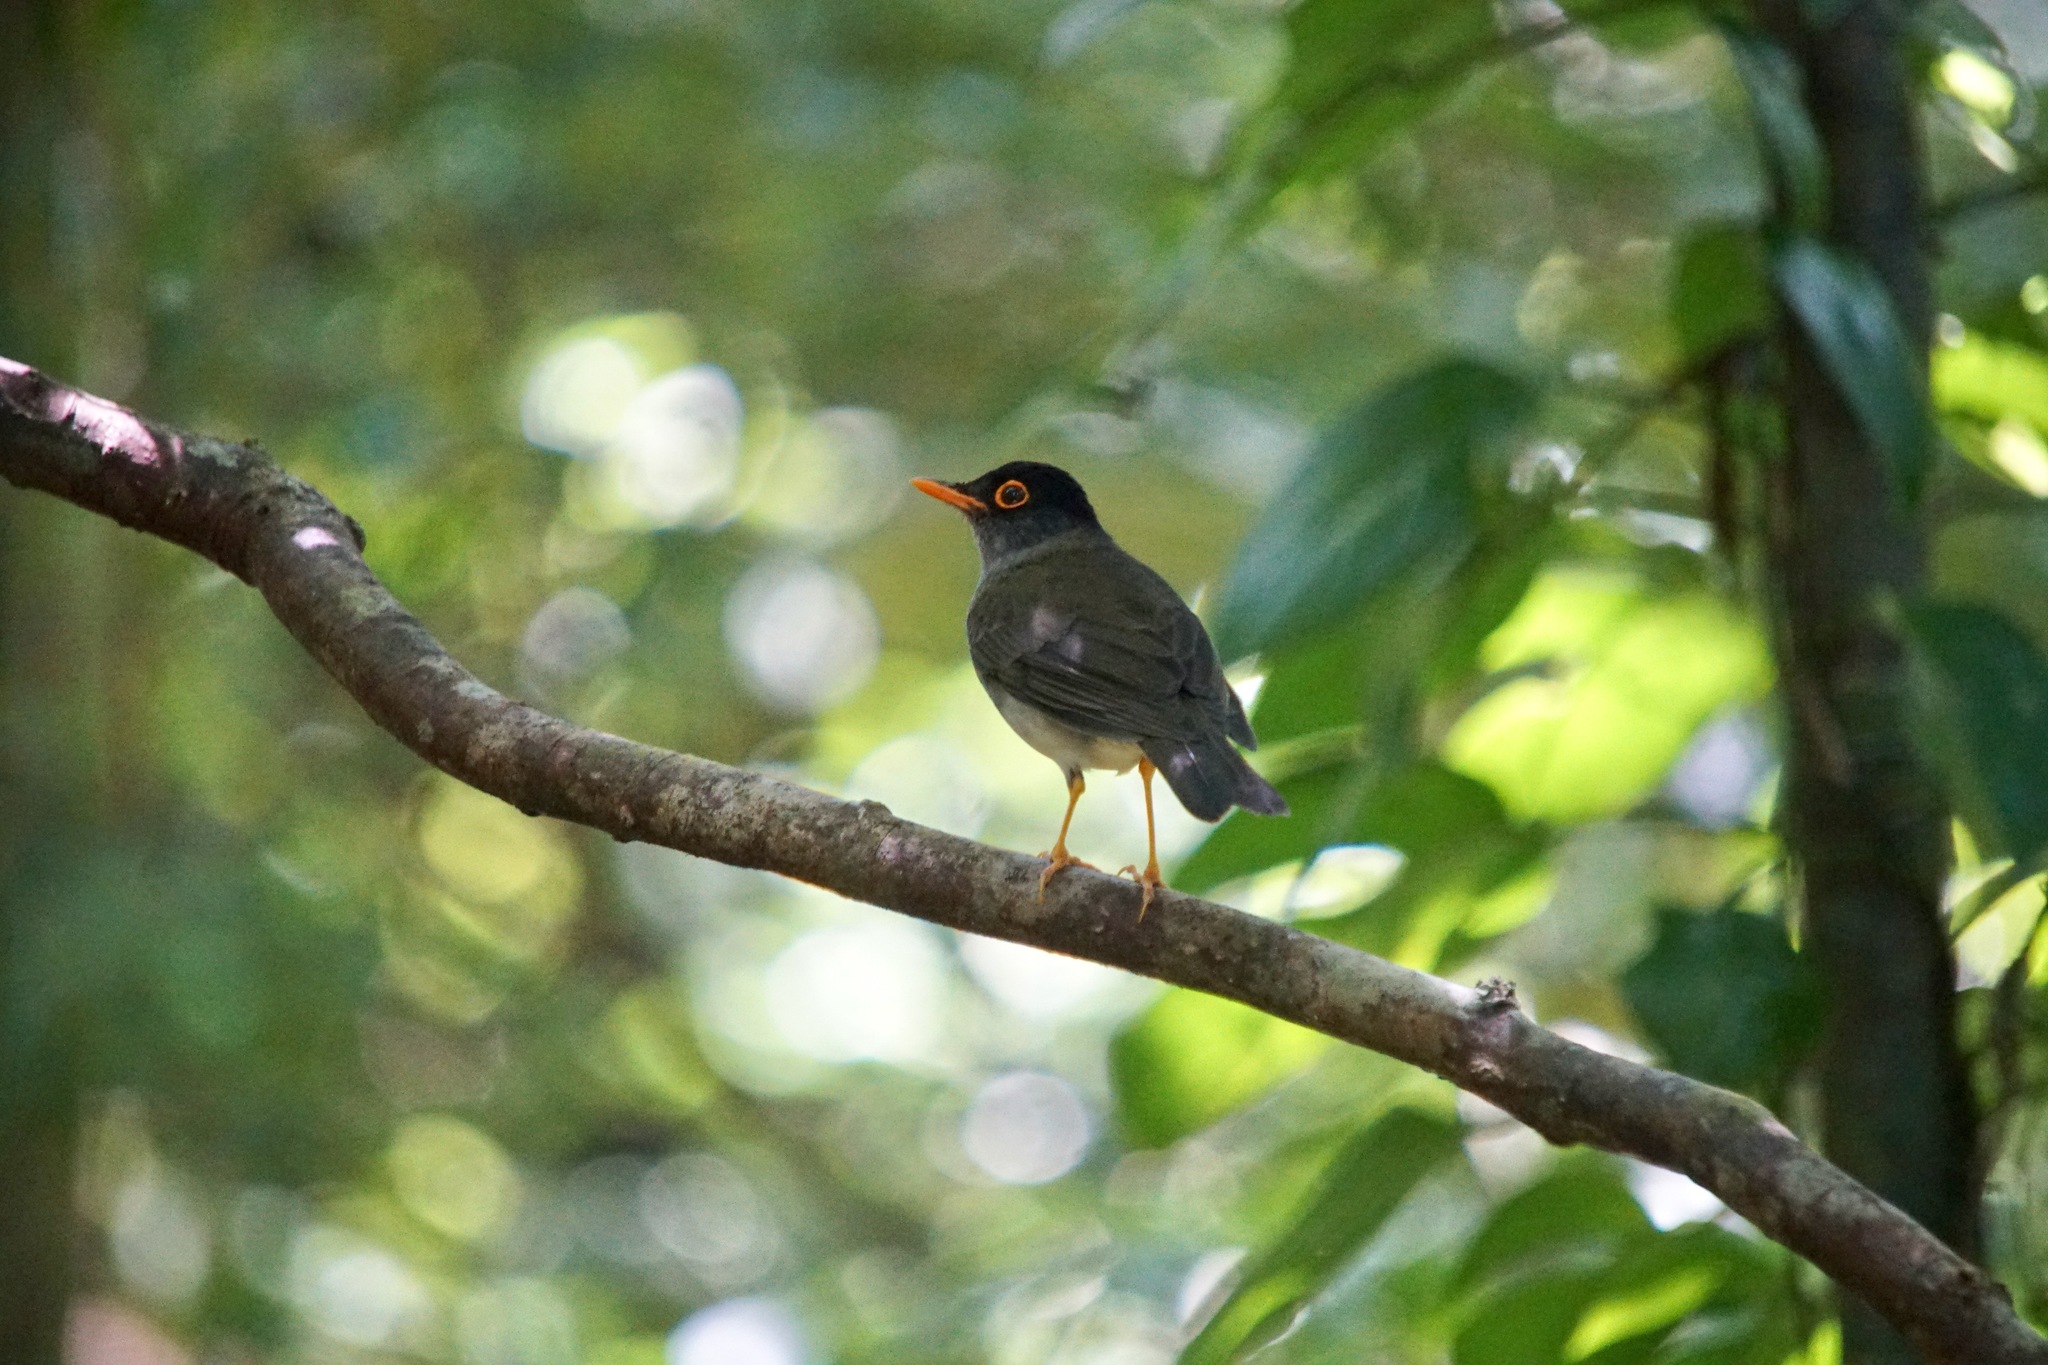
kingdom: Animalia
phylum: Chordata
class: Aves
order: Passeriformes
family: Turdidae
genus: Catharus
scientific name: Catharus mexicanus
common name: Black-headed nightingale-thrush
